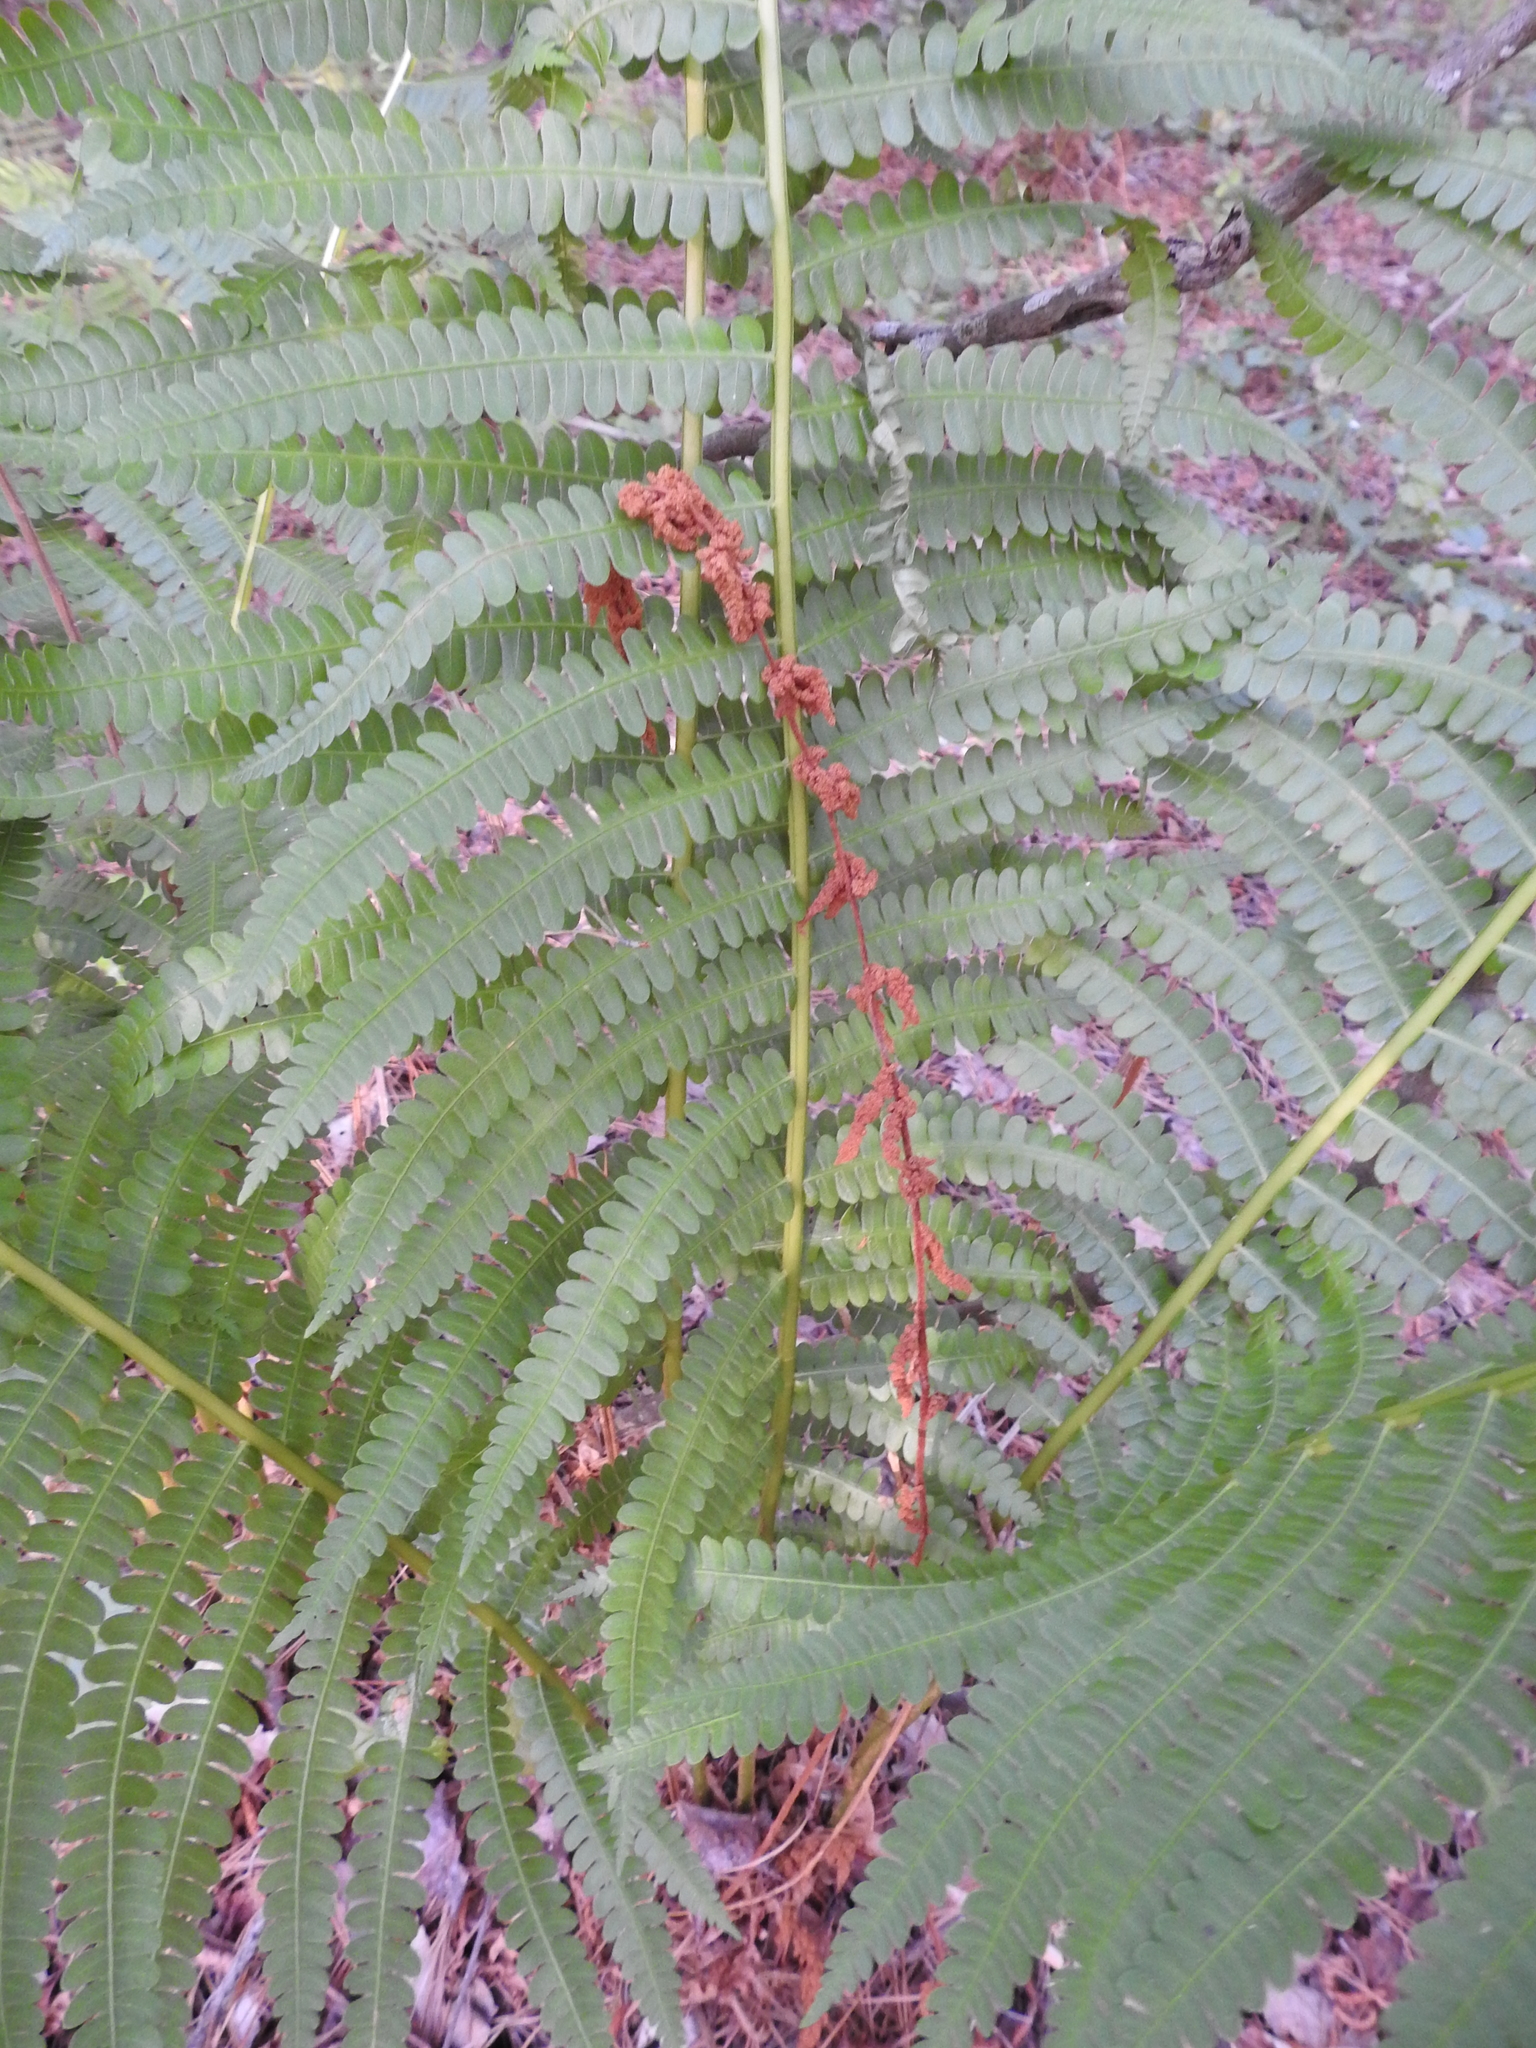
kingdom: Plantae
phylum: Tracheophyta
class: Polypodiopsida
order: Osmundales
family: Osmundaceae
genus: Osmundastrum
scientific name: Osmundastrum cinnamomeum
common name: Cinnamon fern
